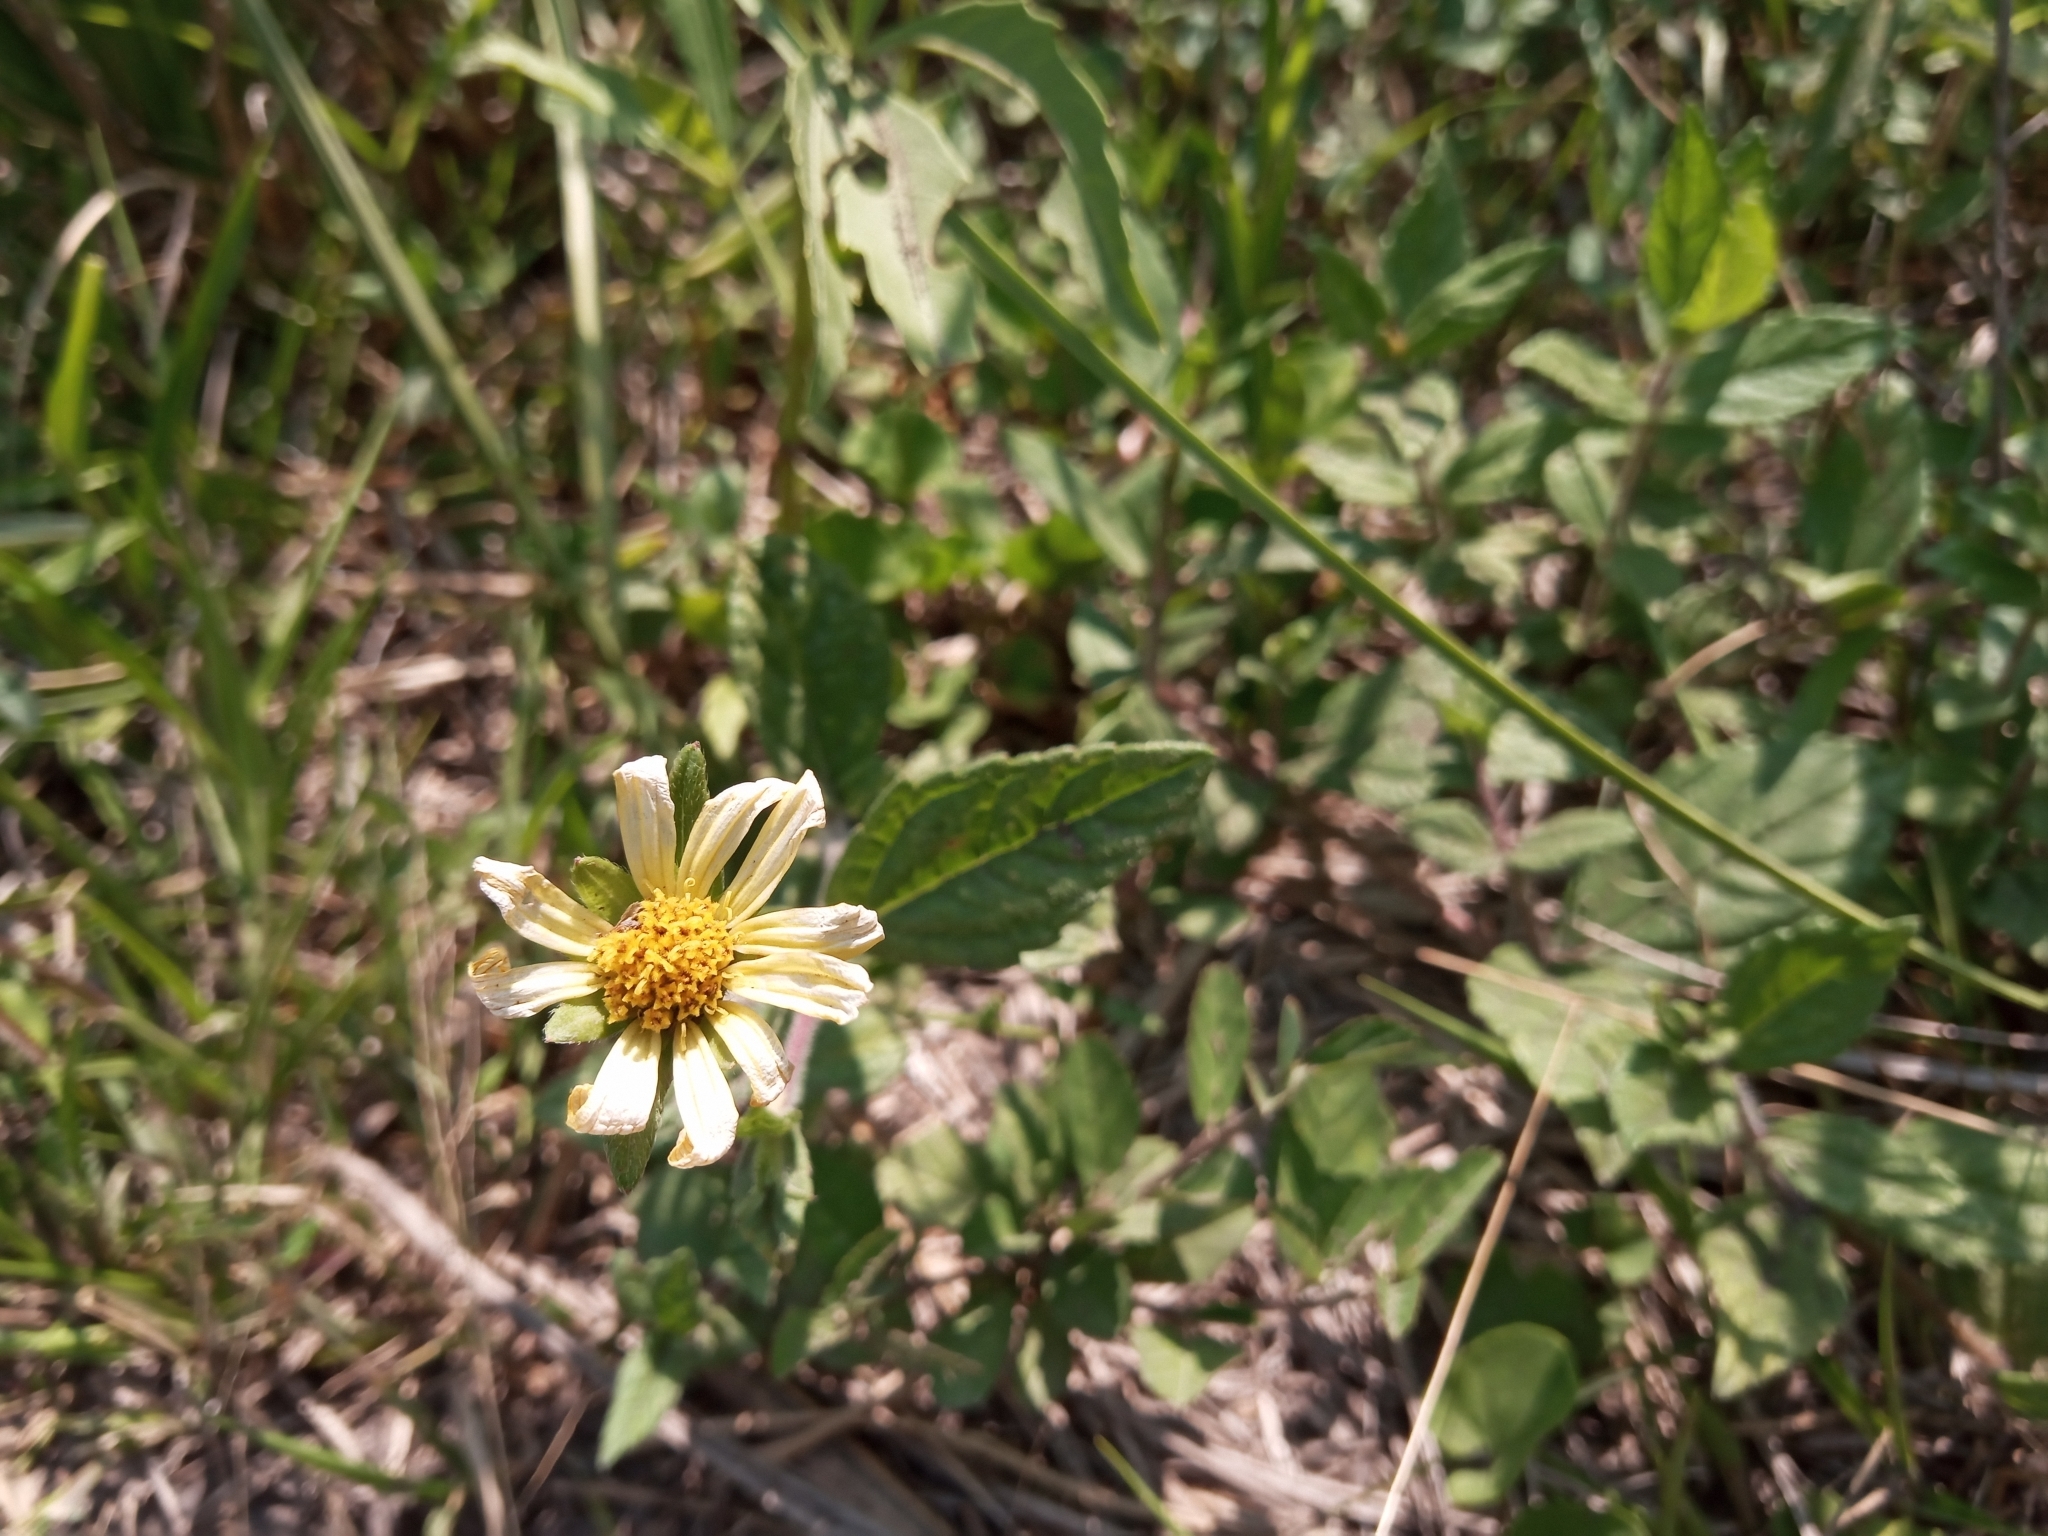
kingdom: Plantae
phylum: Tracheophyta
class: Magnoliopsida
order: Asterales
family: Asteraceae
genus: Sphagneticola
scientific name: Sphagneticola brachycarpa
